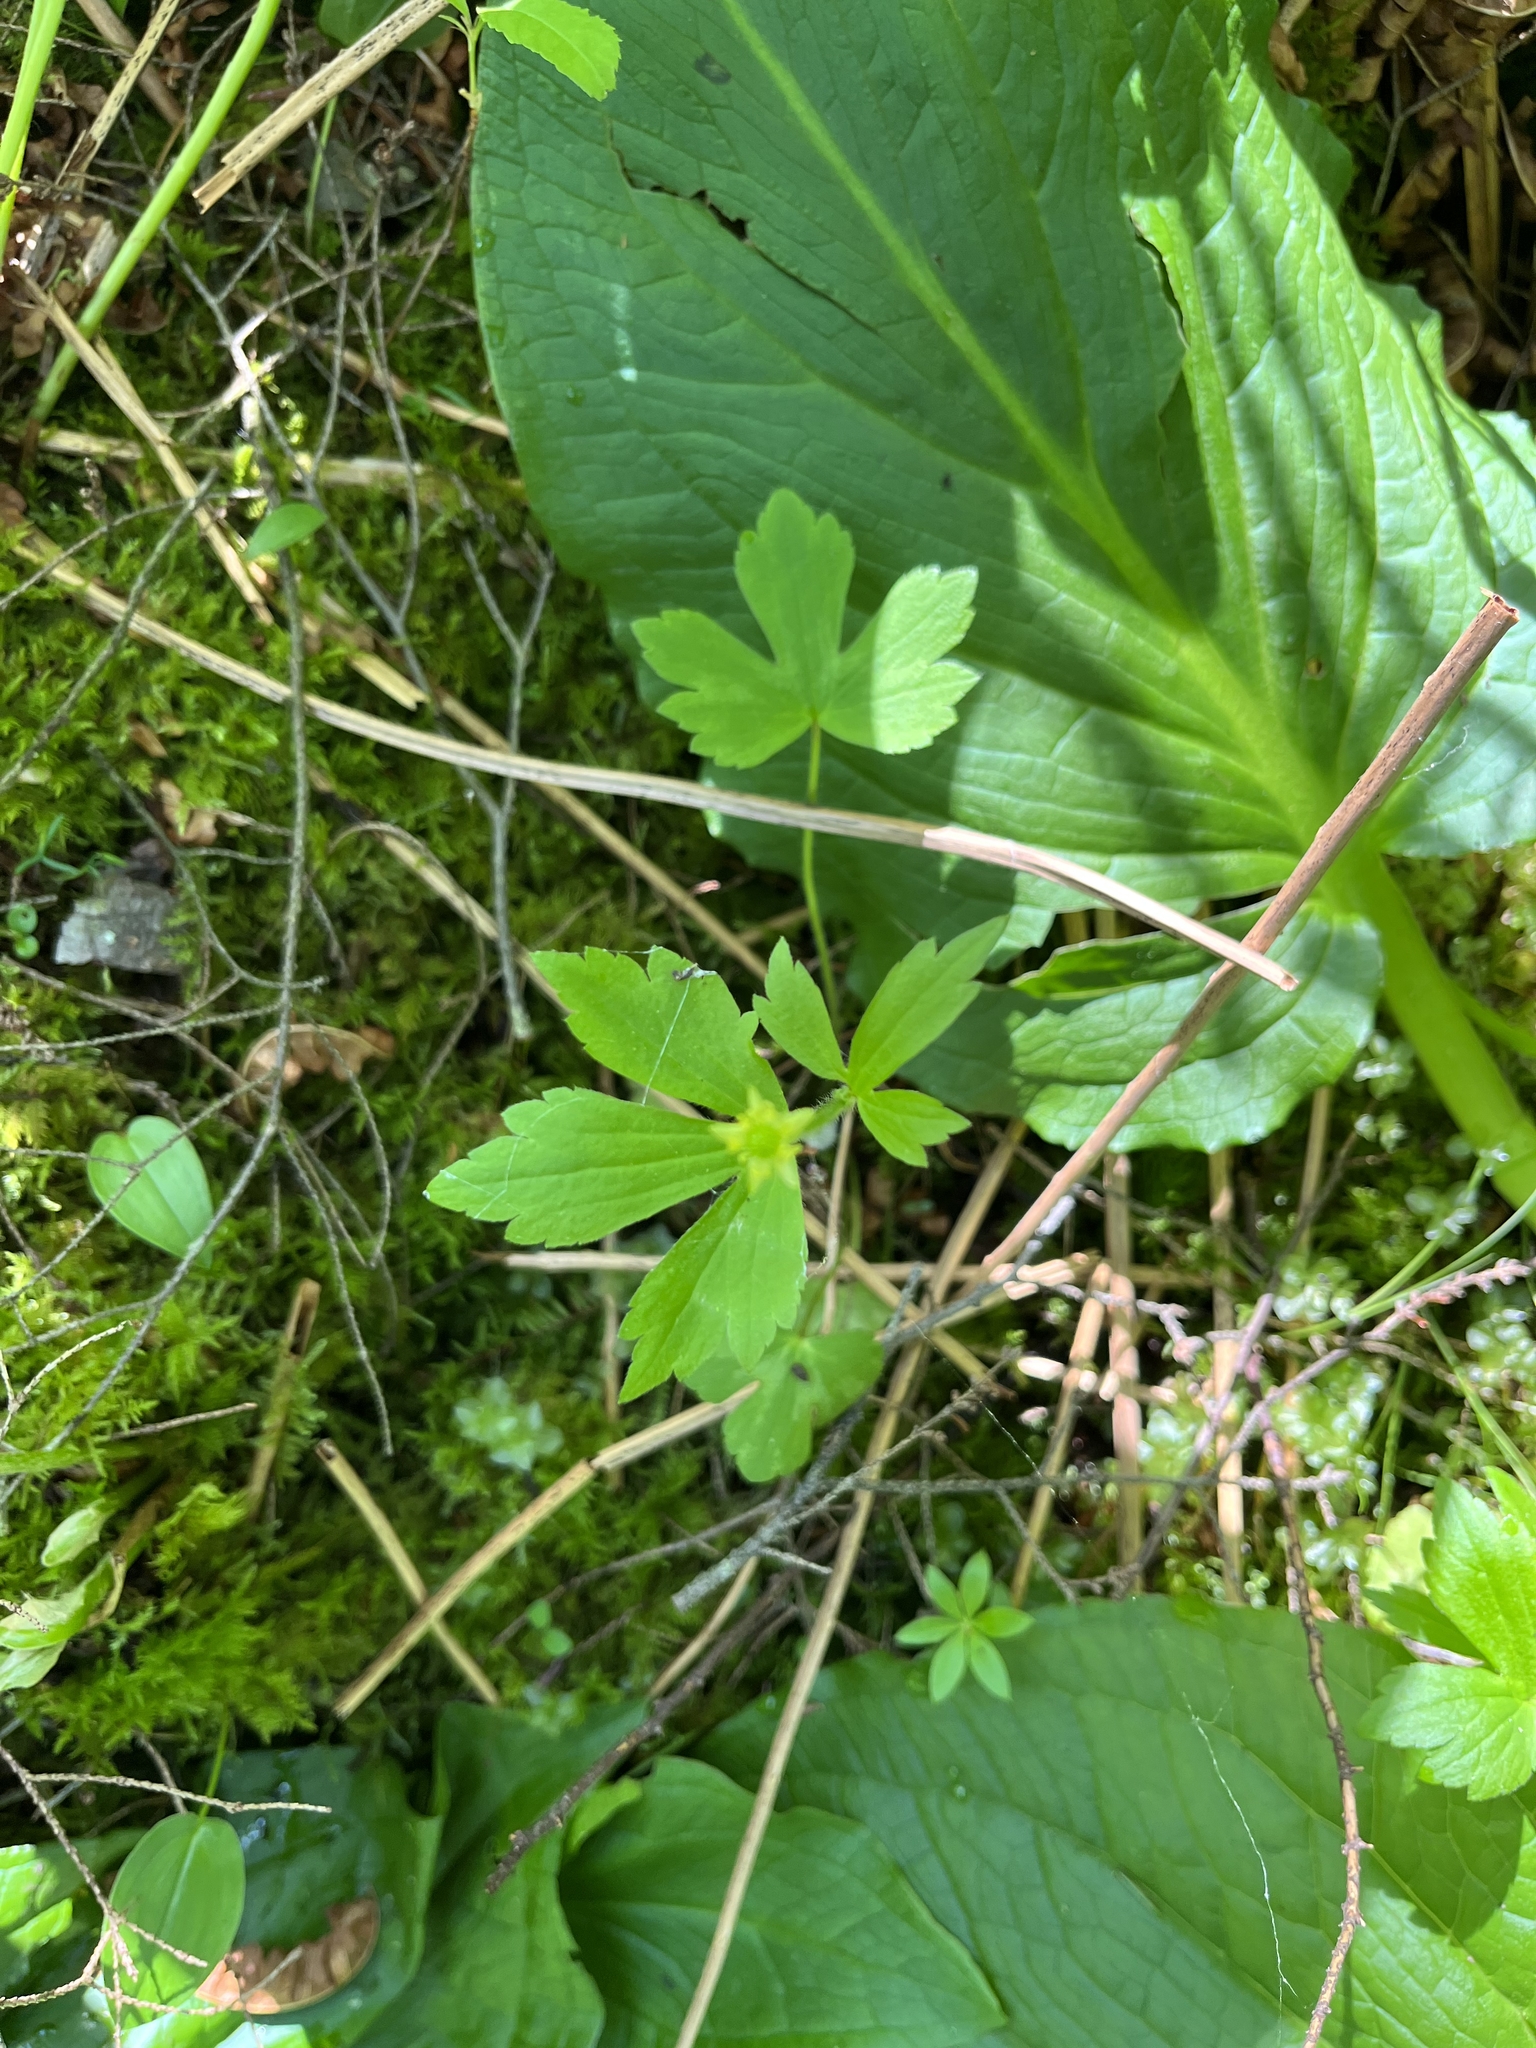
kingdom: Plantae
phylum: Tracheophyta
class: Magnoliopsida
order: Ranunculales
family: Ranunculaceae
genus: Ranunculus
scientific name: Ranunculus recurvatus
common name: Blisterwort
